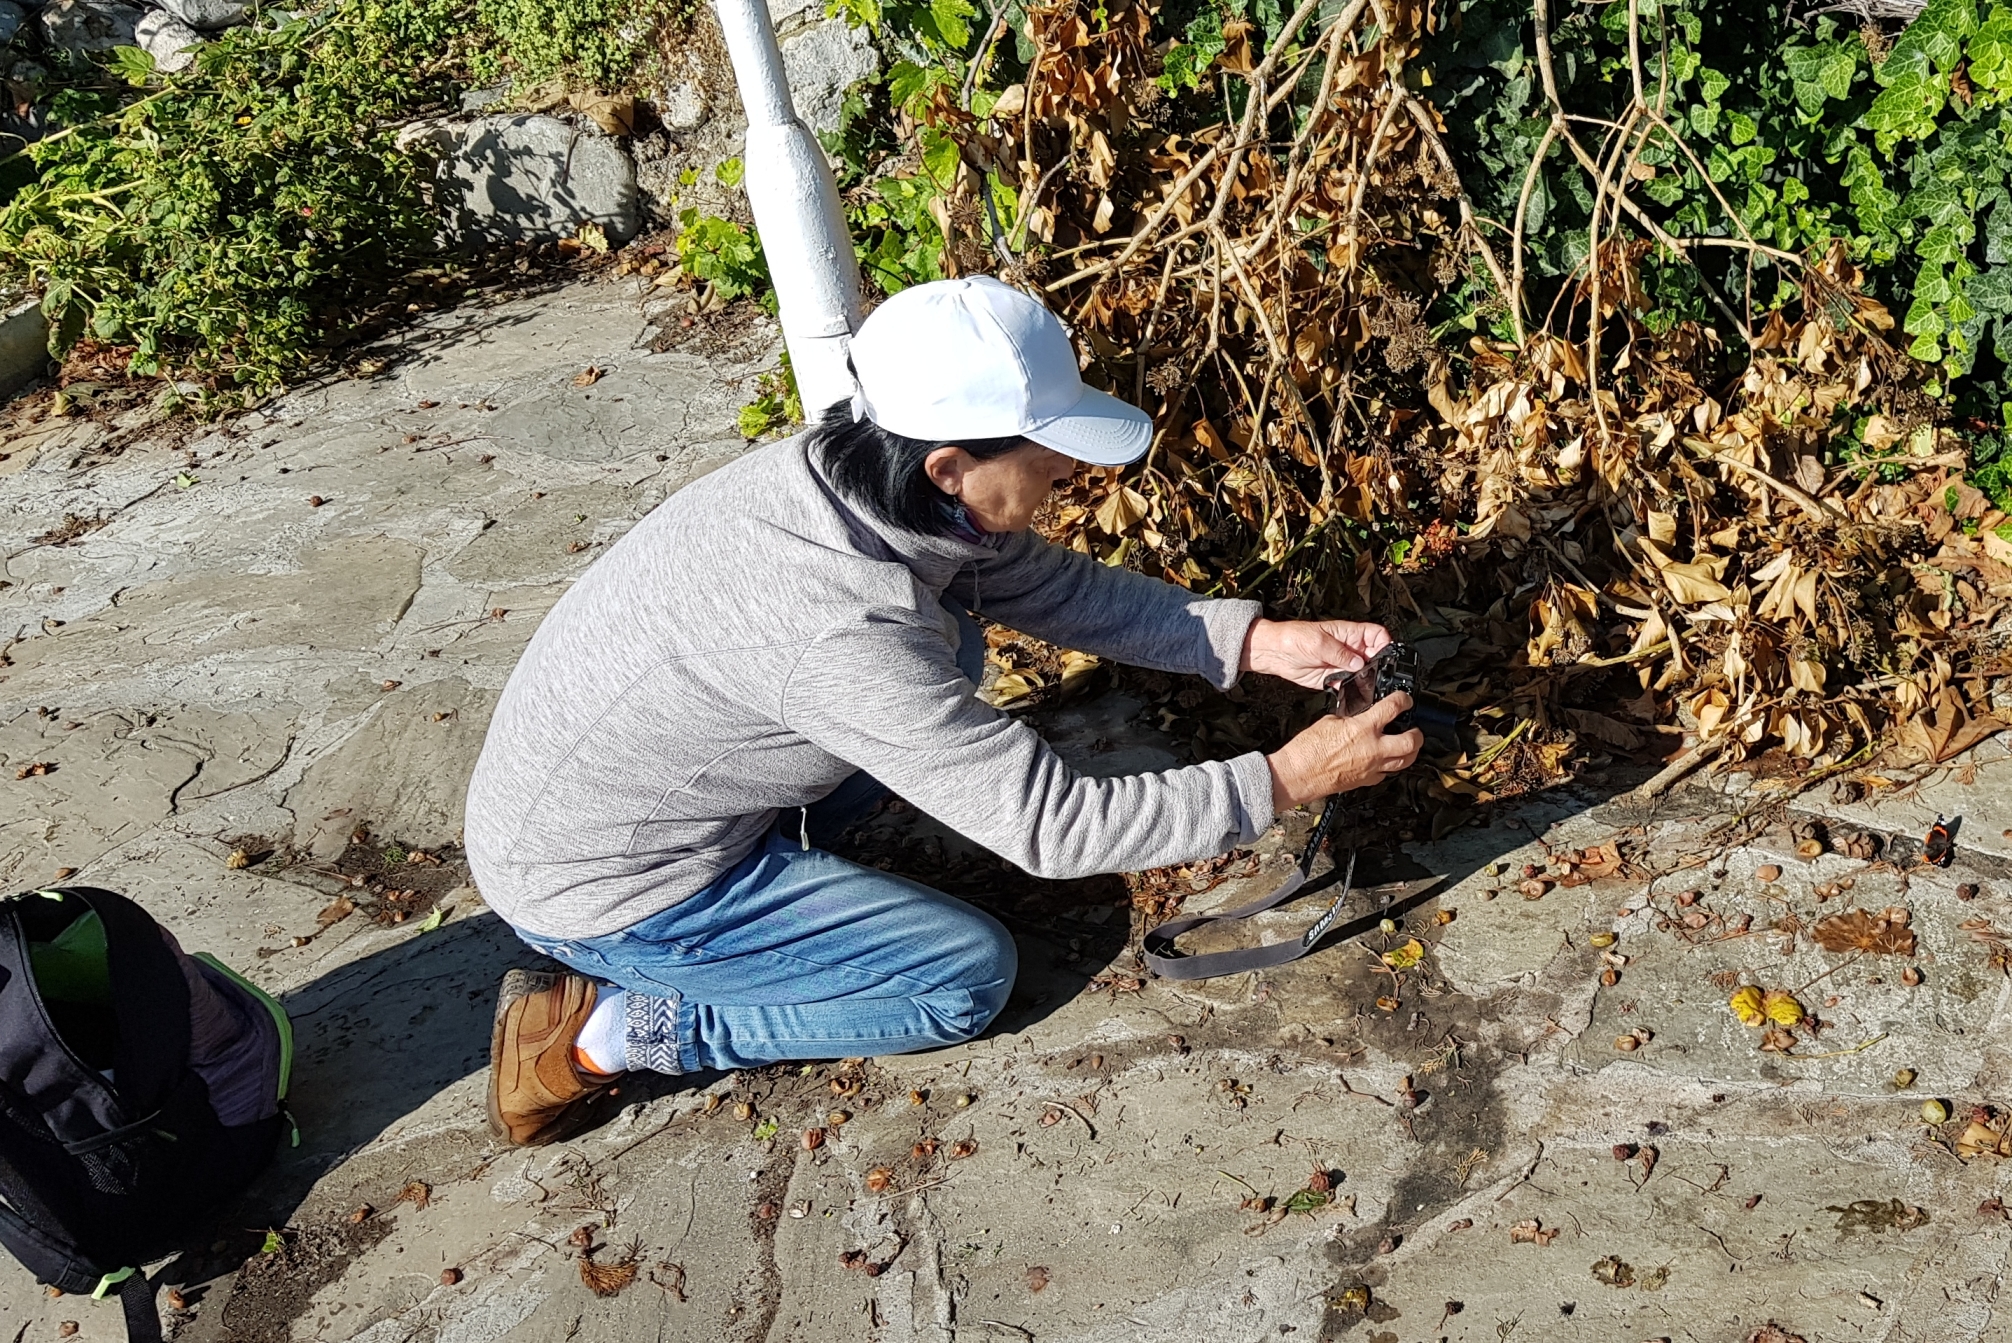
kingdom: Animalia
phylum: Arthropoda
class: Insecta
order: Lepidoptera
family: Nymphalidae
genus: Vanessa
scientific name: Vanessa atalanta
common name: Red admiral
